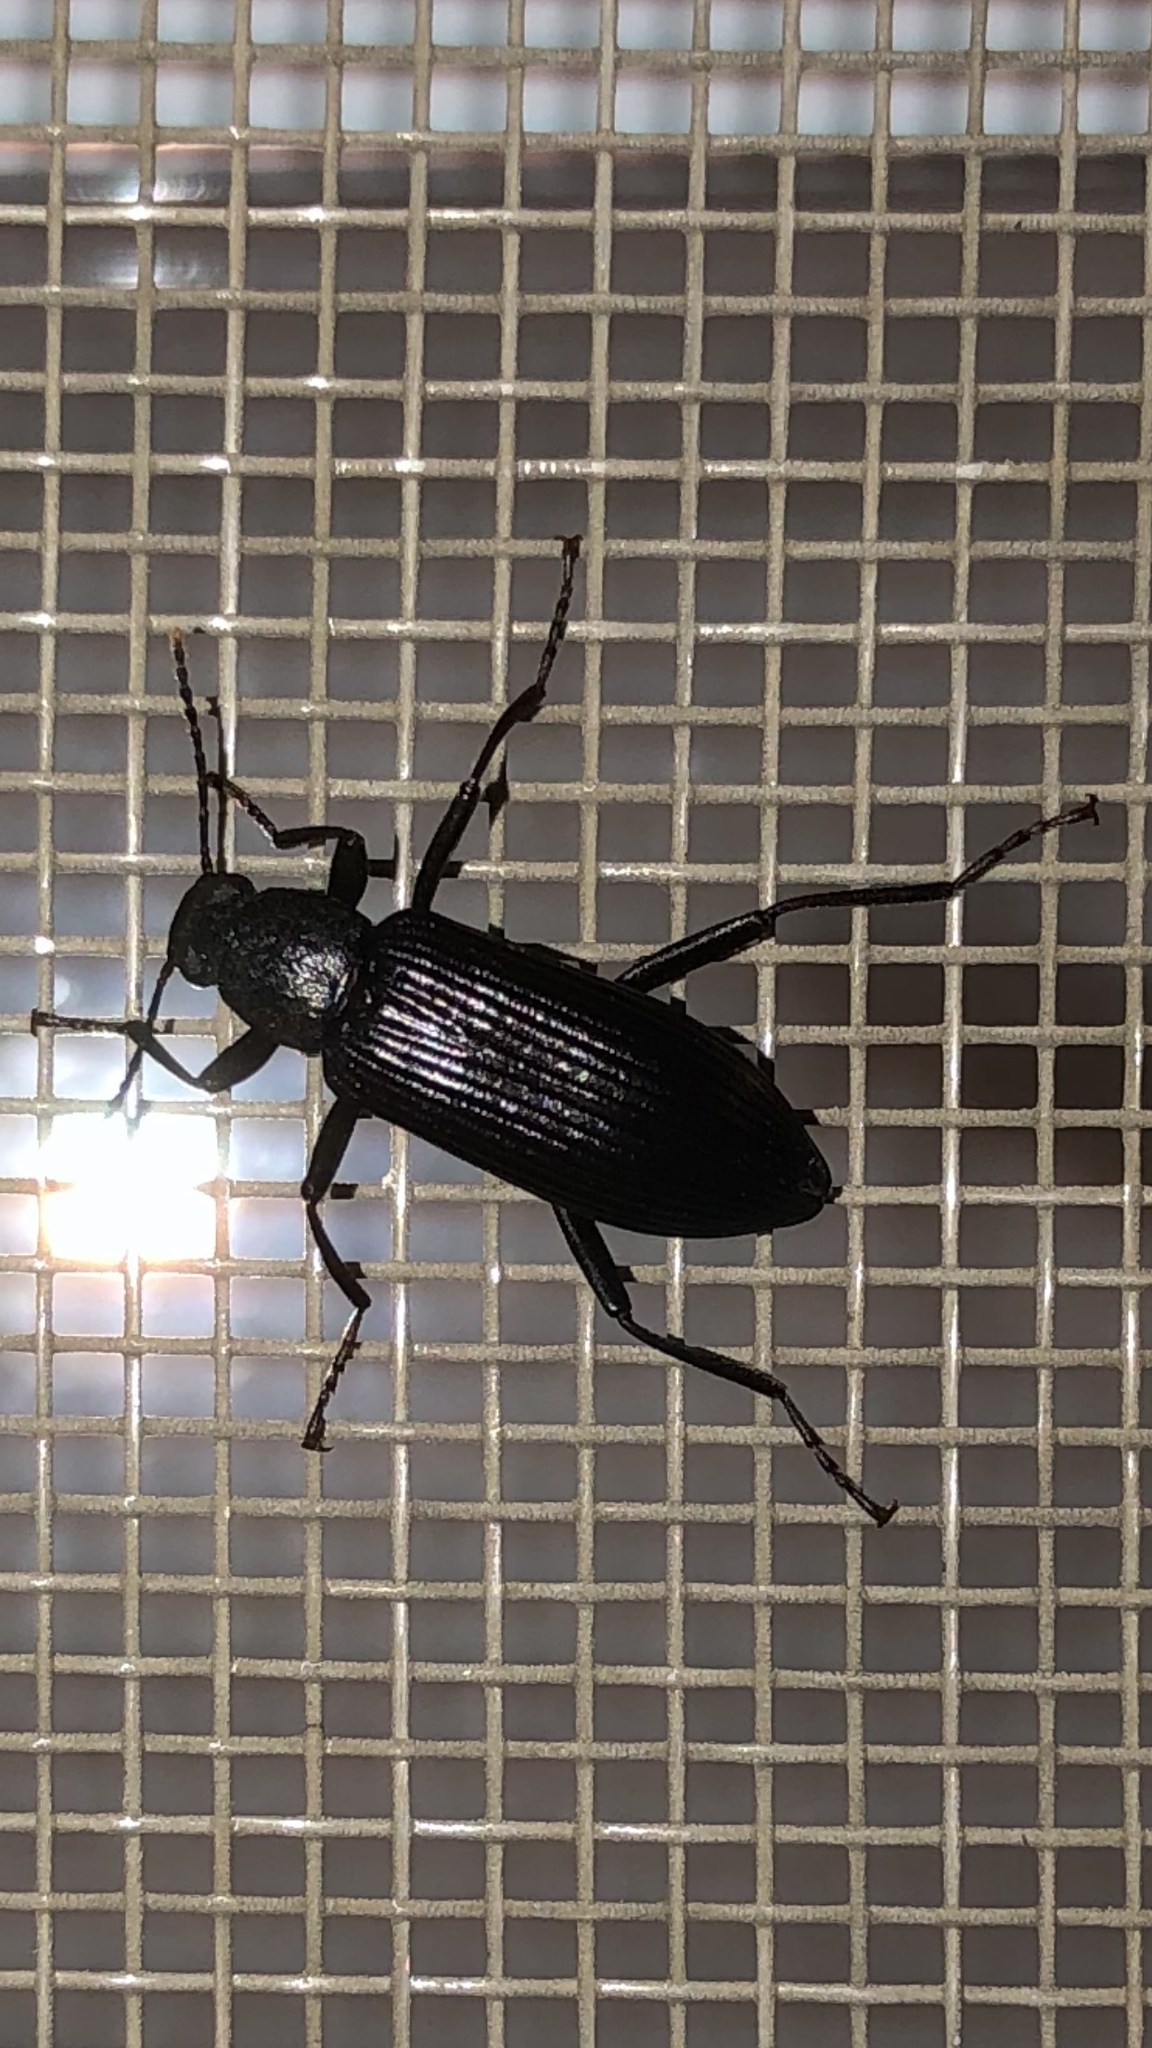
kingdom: Animalia
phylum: Arthropoda
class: Insecta
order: Coleoptera
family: Tenebrionidae
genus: Strongylium
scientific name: Strongylium tenuicolle
